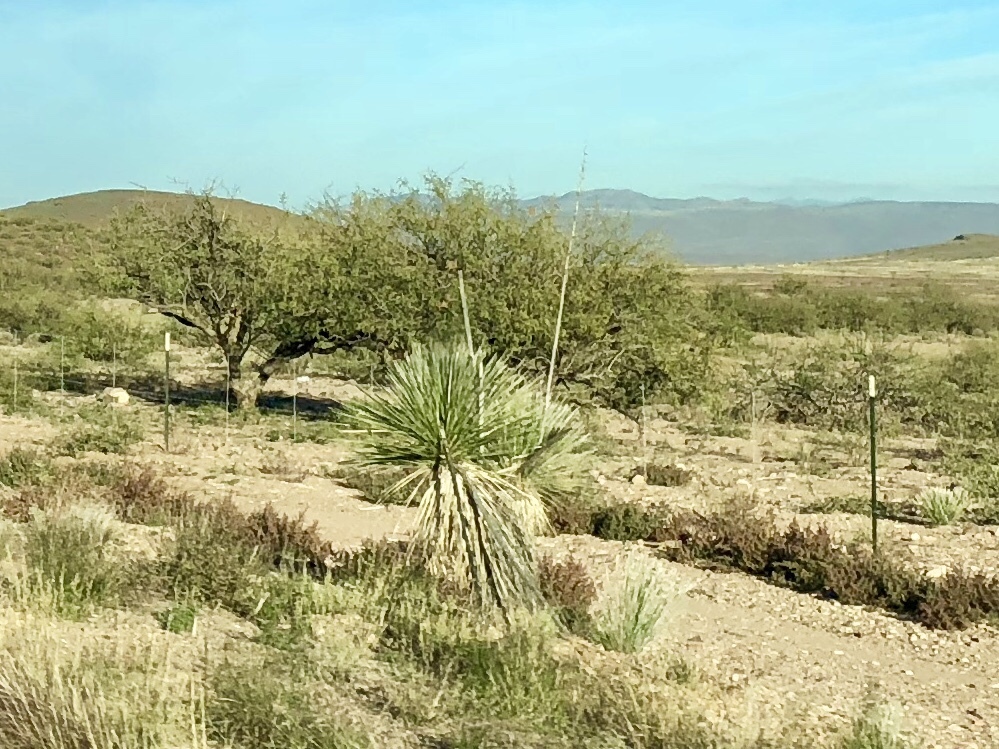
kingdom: Plantae
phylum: Tracheophyta
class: Liliopsida
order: Asparagales
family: Asparagaceae
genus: Yucca
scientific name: Yucca elata
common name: Palmella
